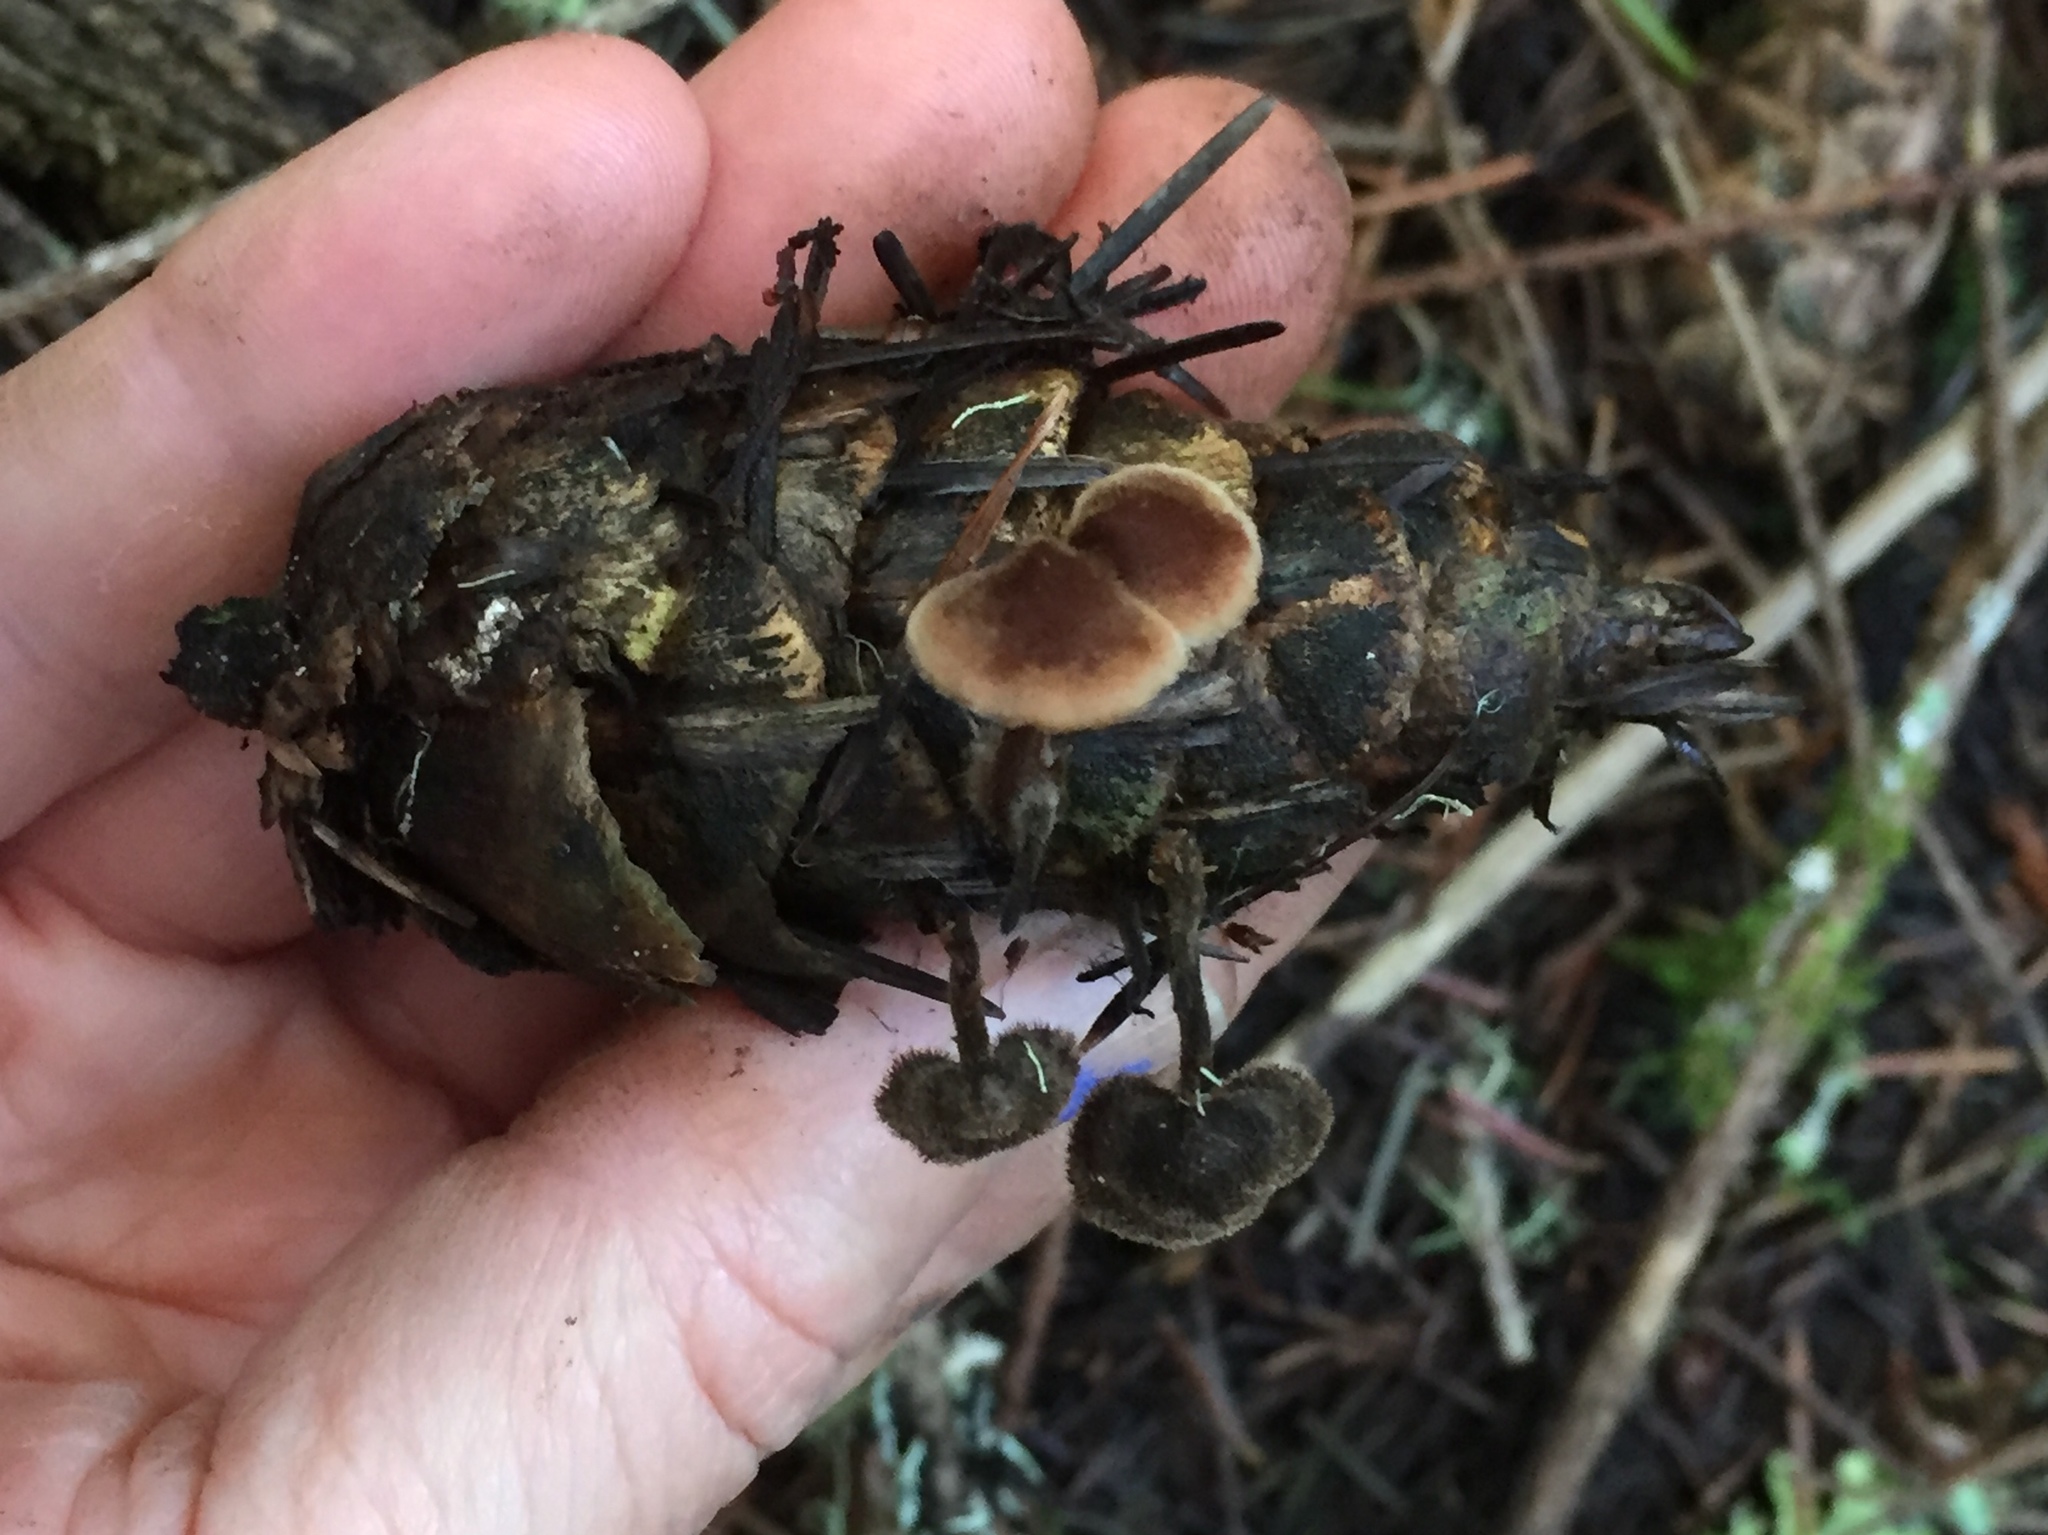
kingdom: Fungi
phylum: Basidiomycota
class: Agaricomycetes
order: Russulales
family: Auriscalpiaceae
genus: Auriscalpium
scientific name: Auriscalpium vulgare
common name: Earpick fungus
